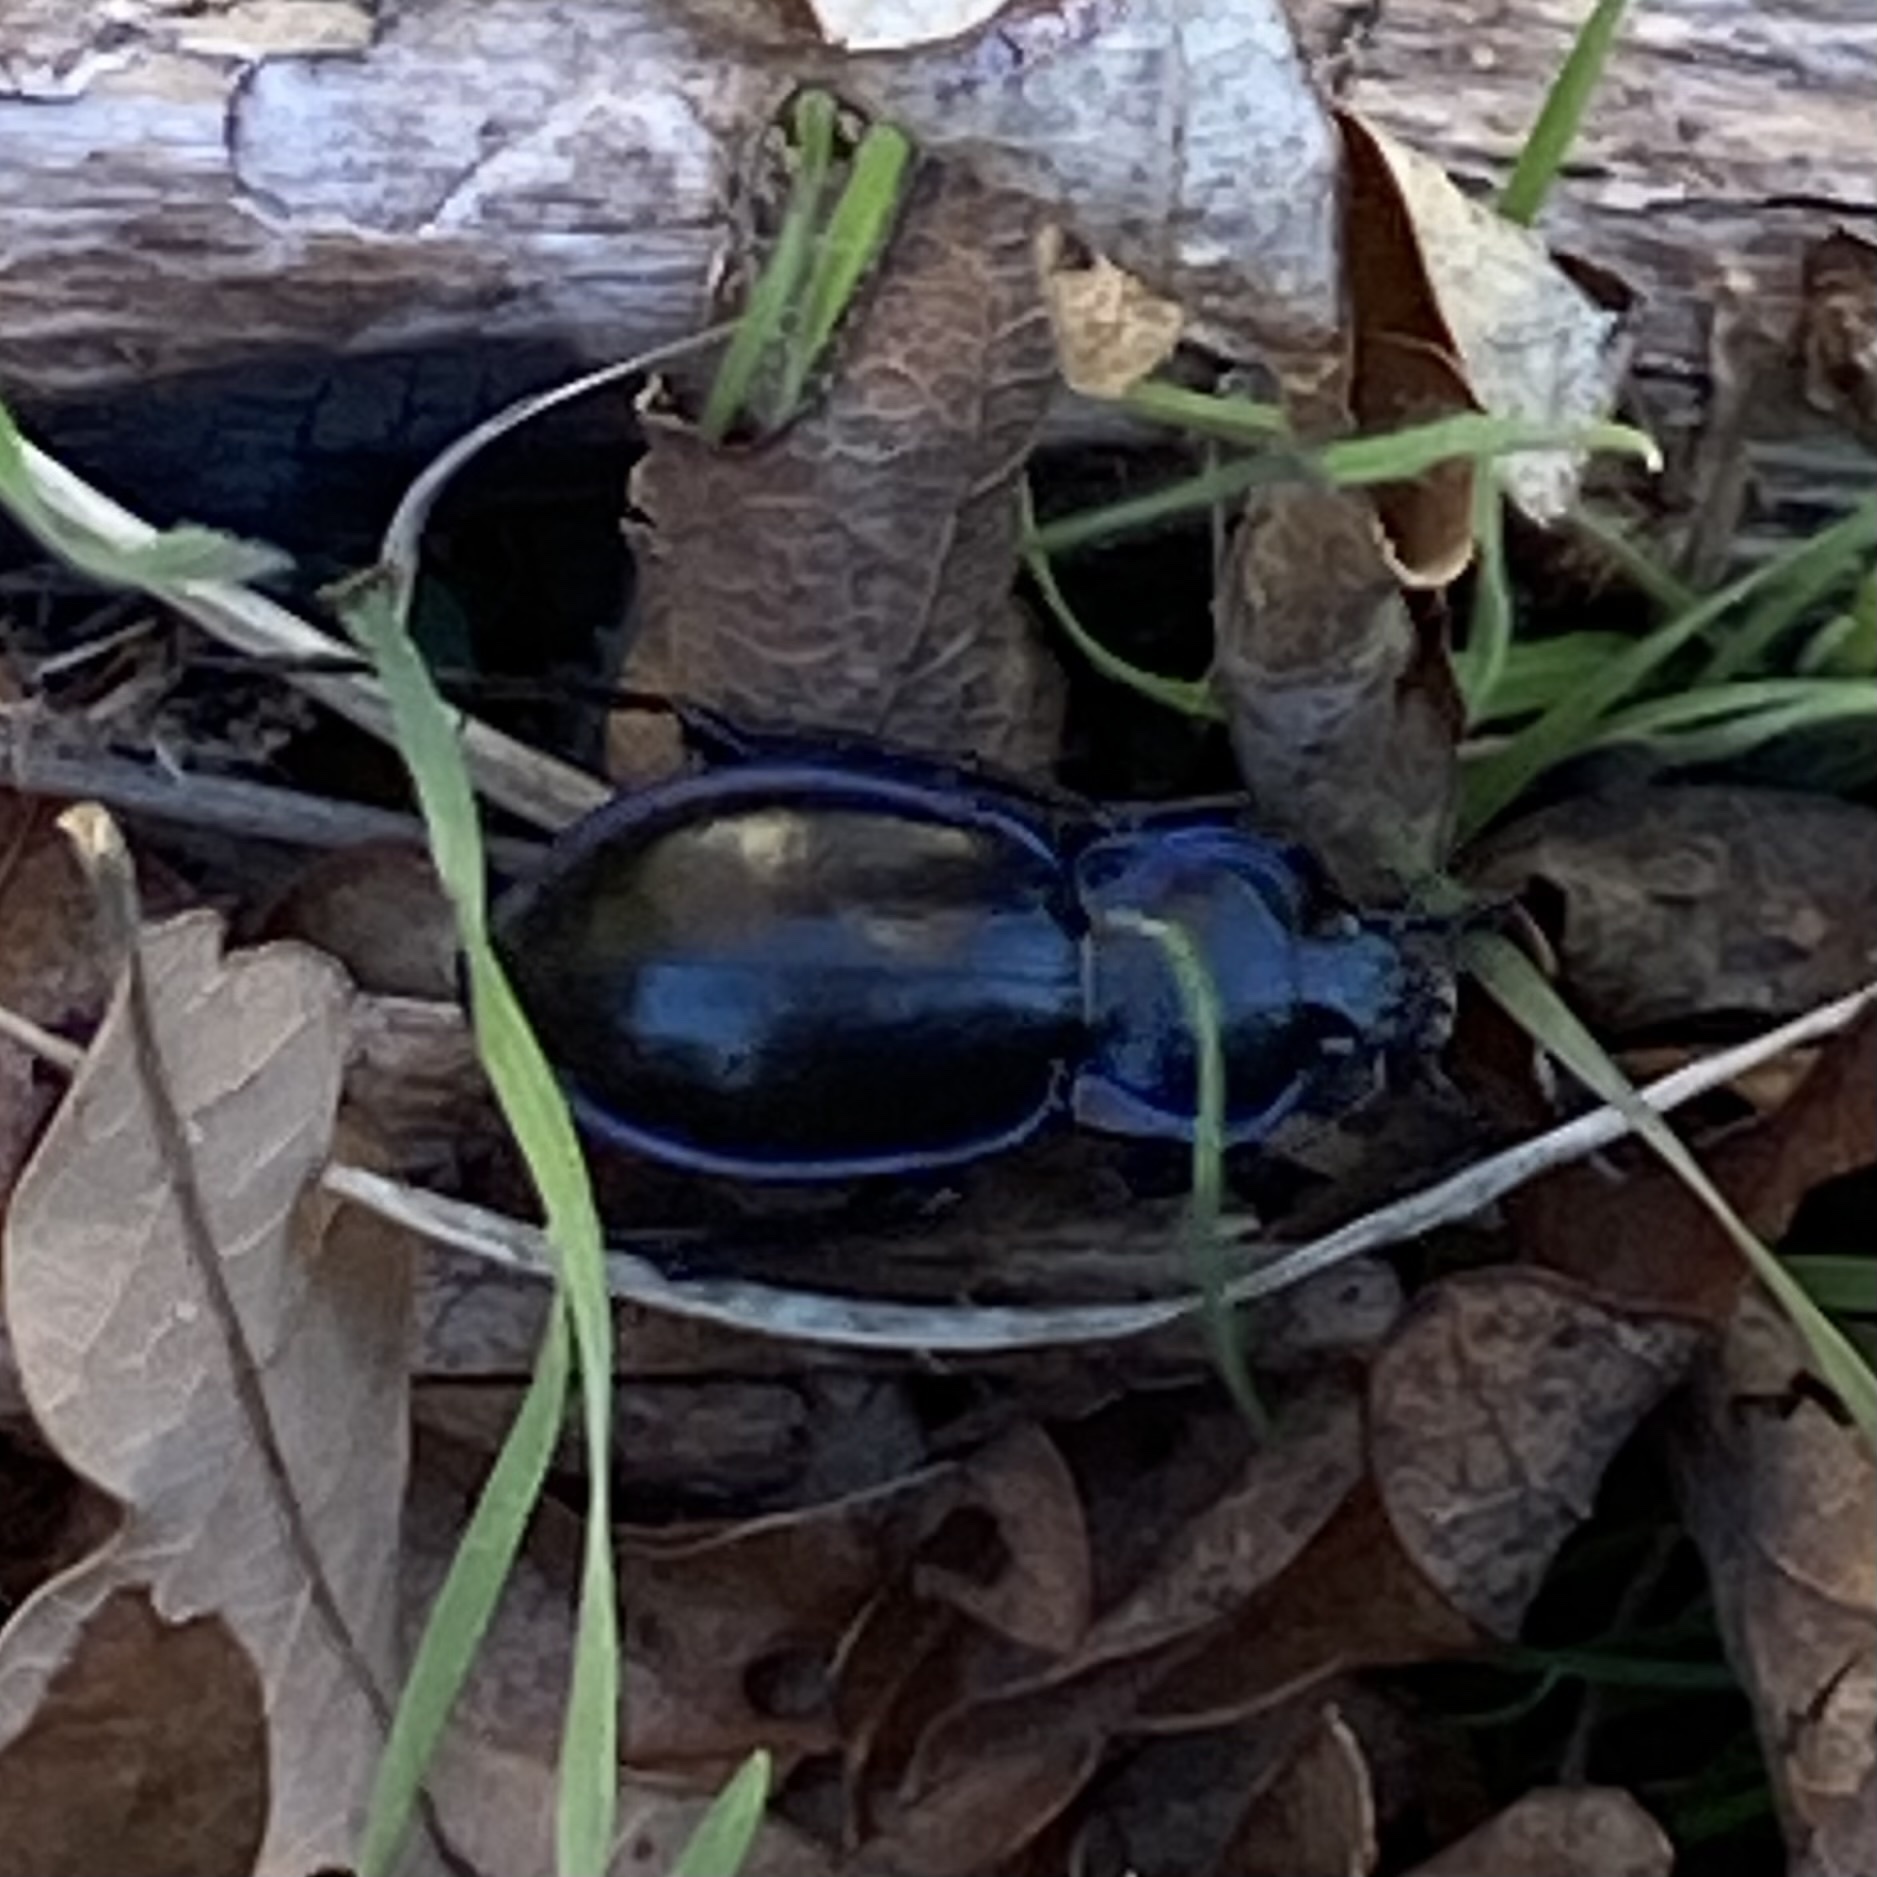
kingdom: Animalia
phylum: Arthropoda
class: Insecta
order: Coleoptera
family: Carabidae
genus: Carabus
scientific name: Carabus finitimus
